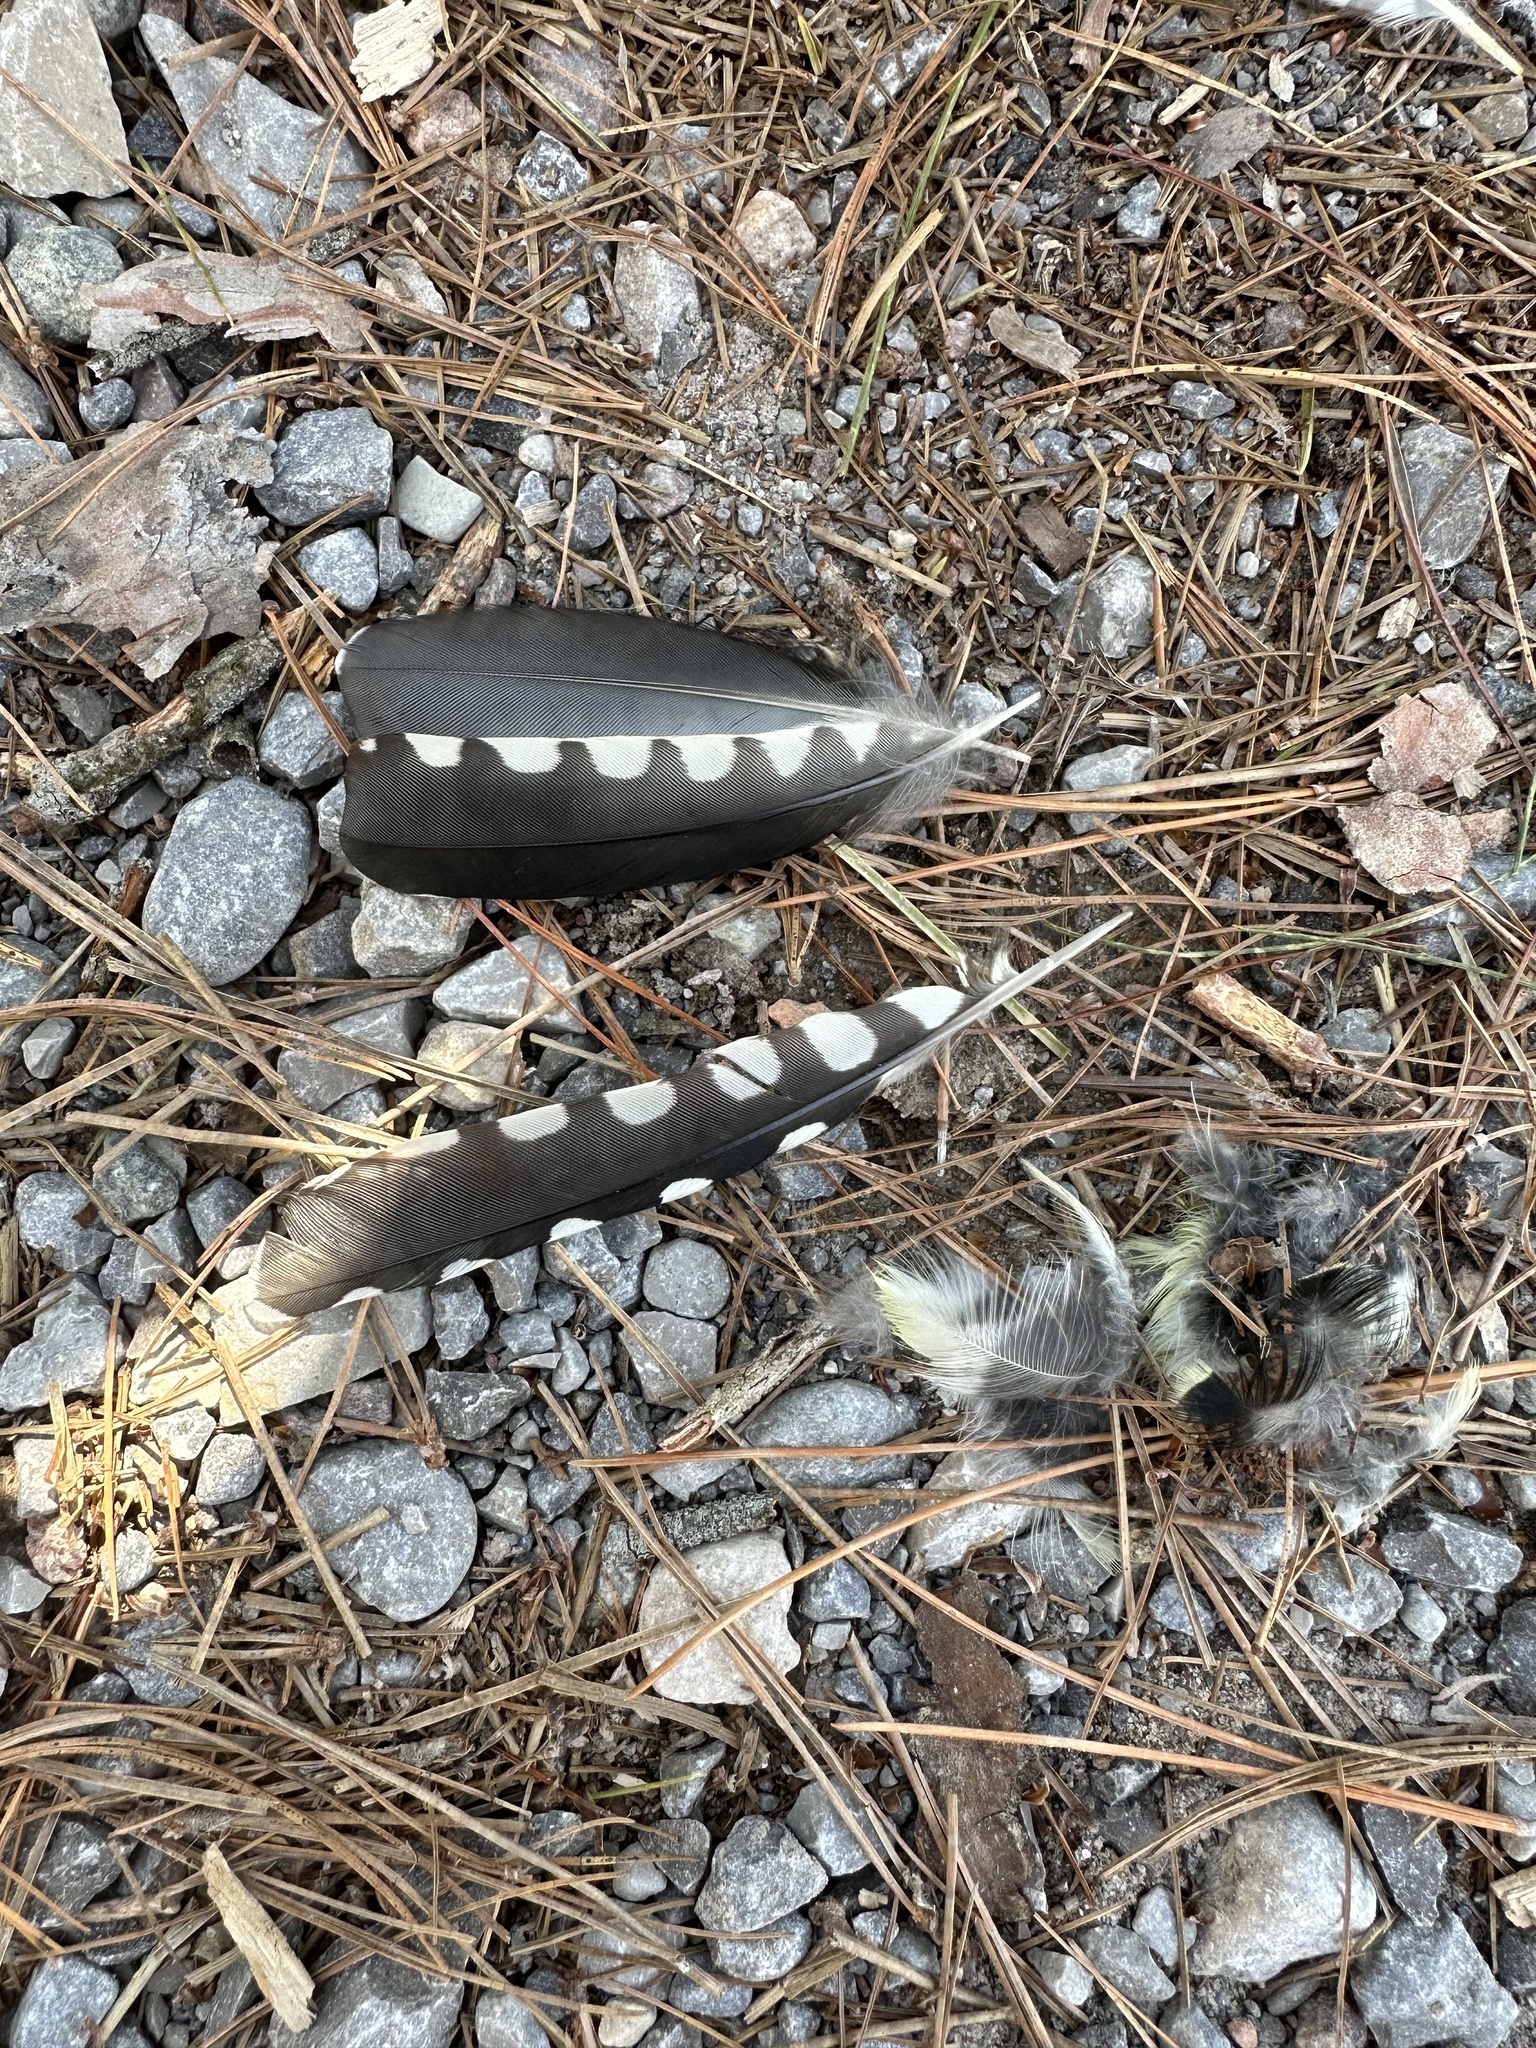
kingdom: Animalia
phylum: Chordata
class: Aves
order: Piciformes
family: Picidae
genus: Sphyrapicus
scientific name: Sphyrapicus varius
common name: Yellow-bellied sapsucker
